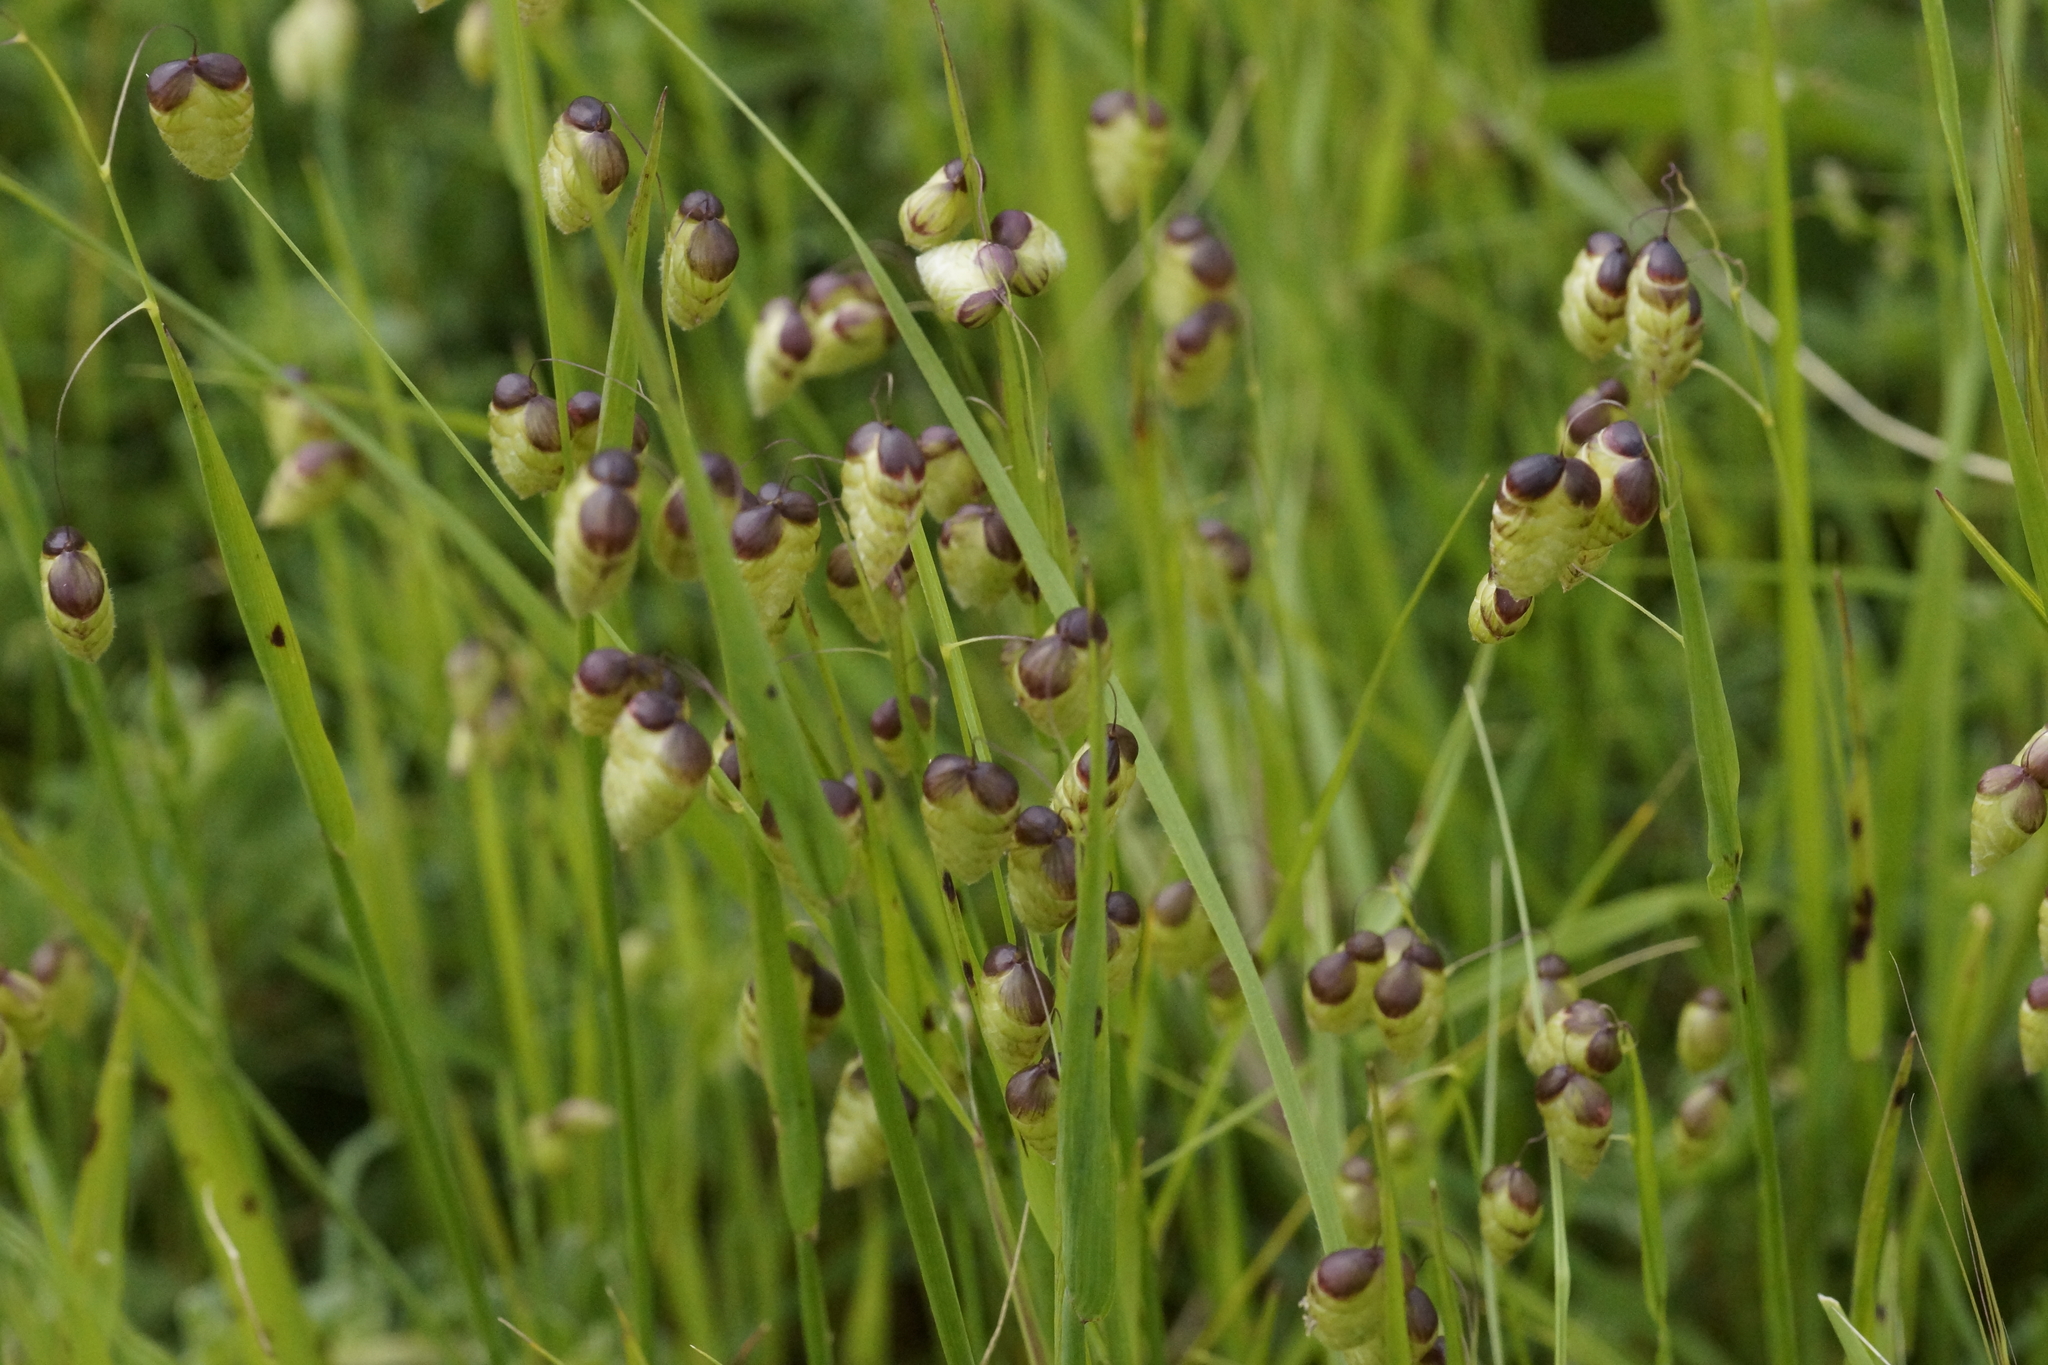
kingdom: Plantae
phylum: Tracheophyta
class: Liliopsida
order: Poales
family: Poaceae
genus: Briza
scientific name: Briza maxima
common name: Big quakinggrass
